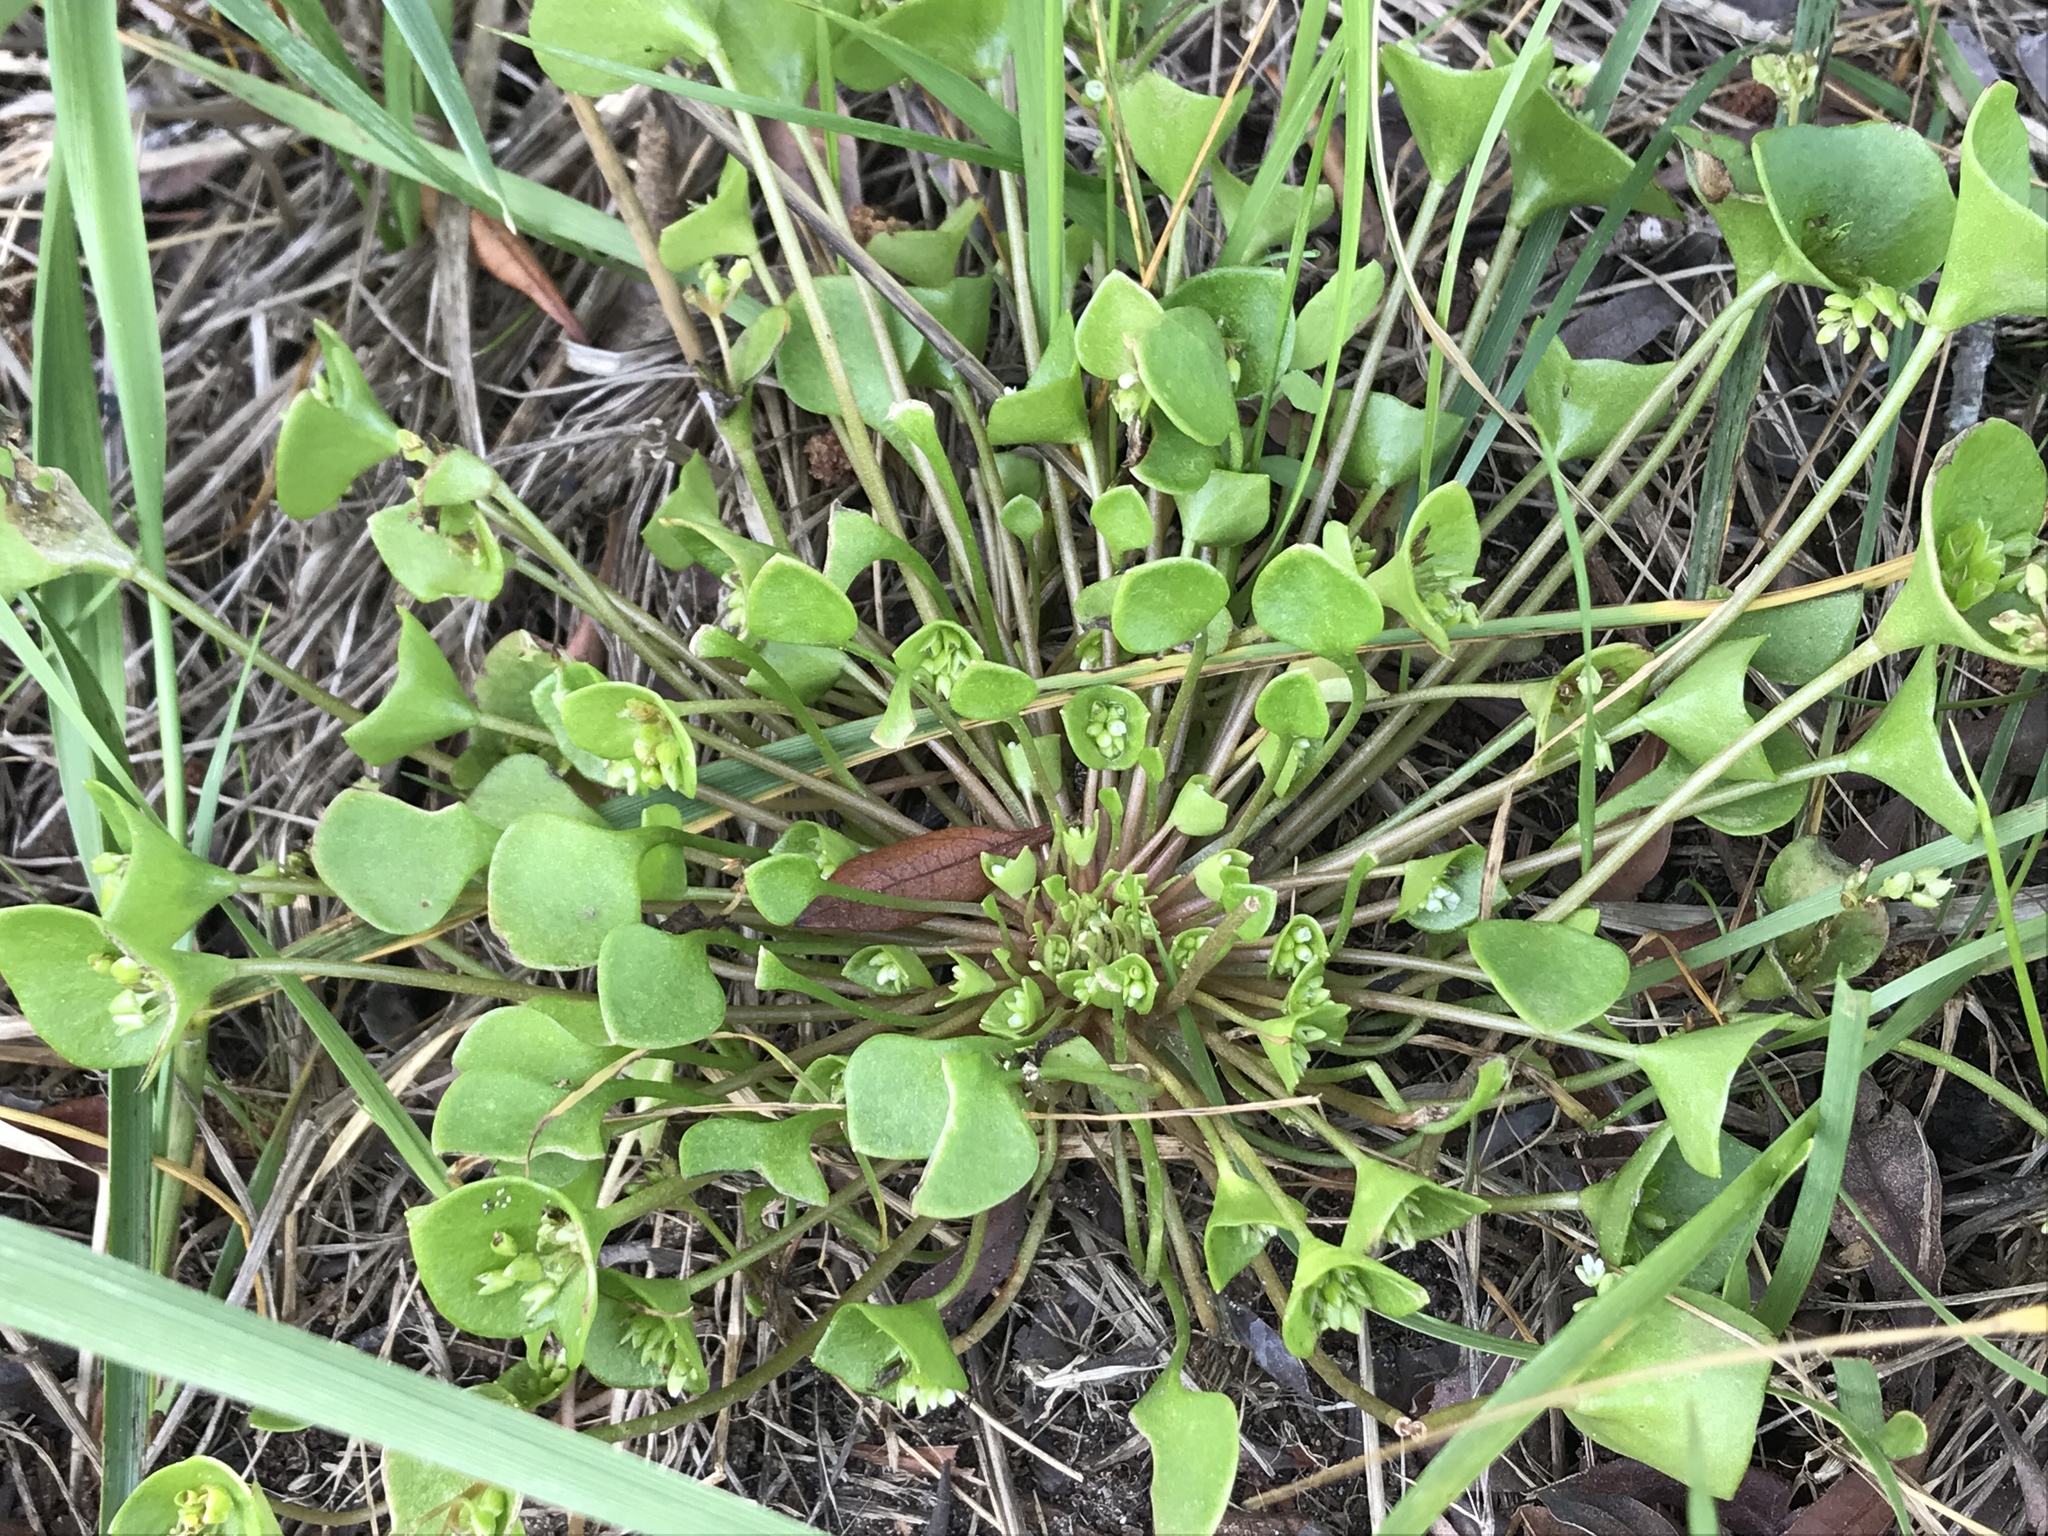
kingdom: Plantae
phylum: Tracheophyta
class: Magnoliopsida
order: Caryophyllales
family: Montiaceae
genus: Claytonia
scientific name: Claytonia rubra
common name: Erubescent miner's-lettuce
